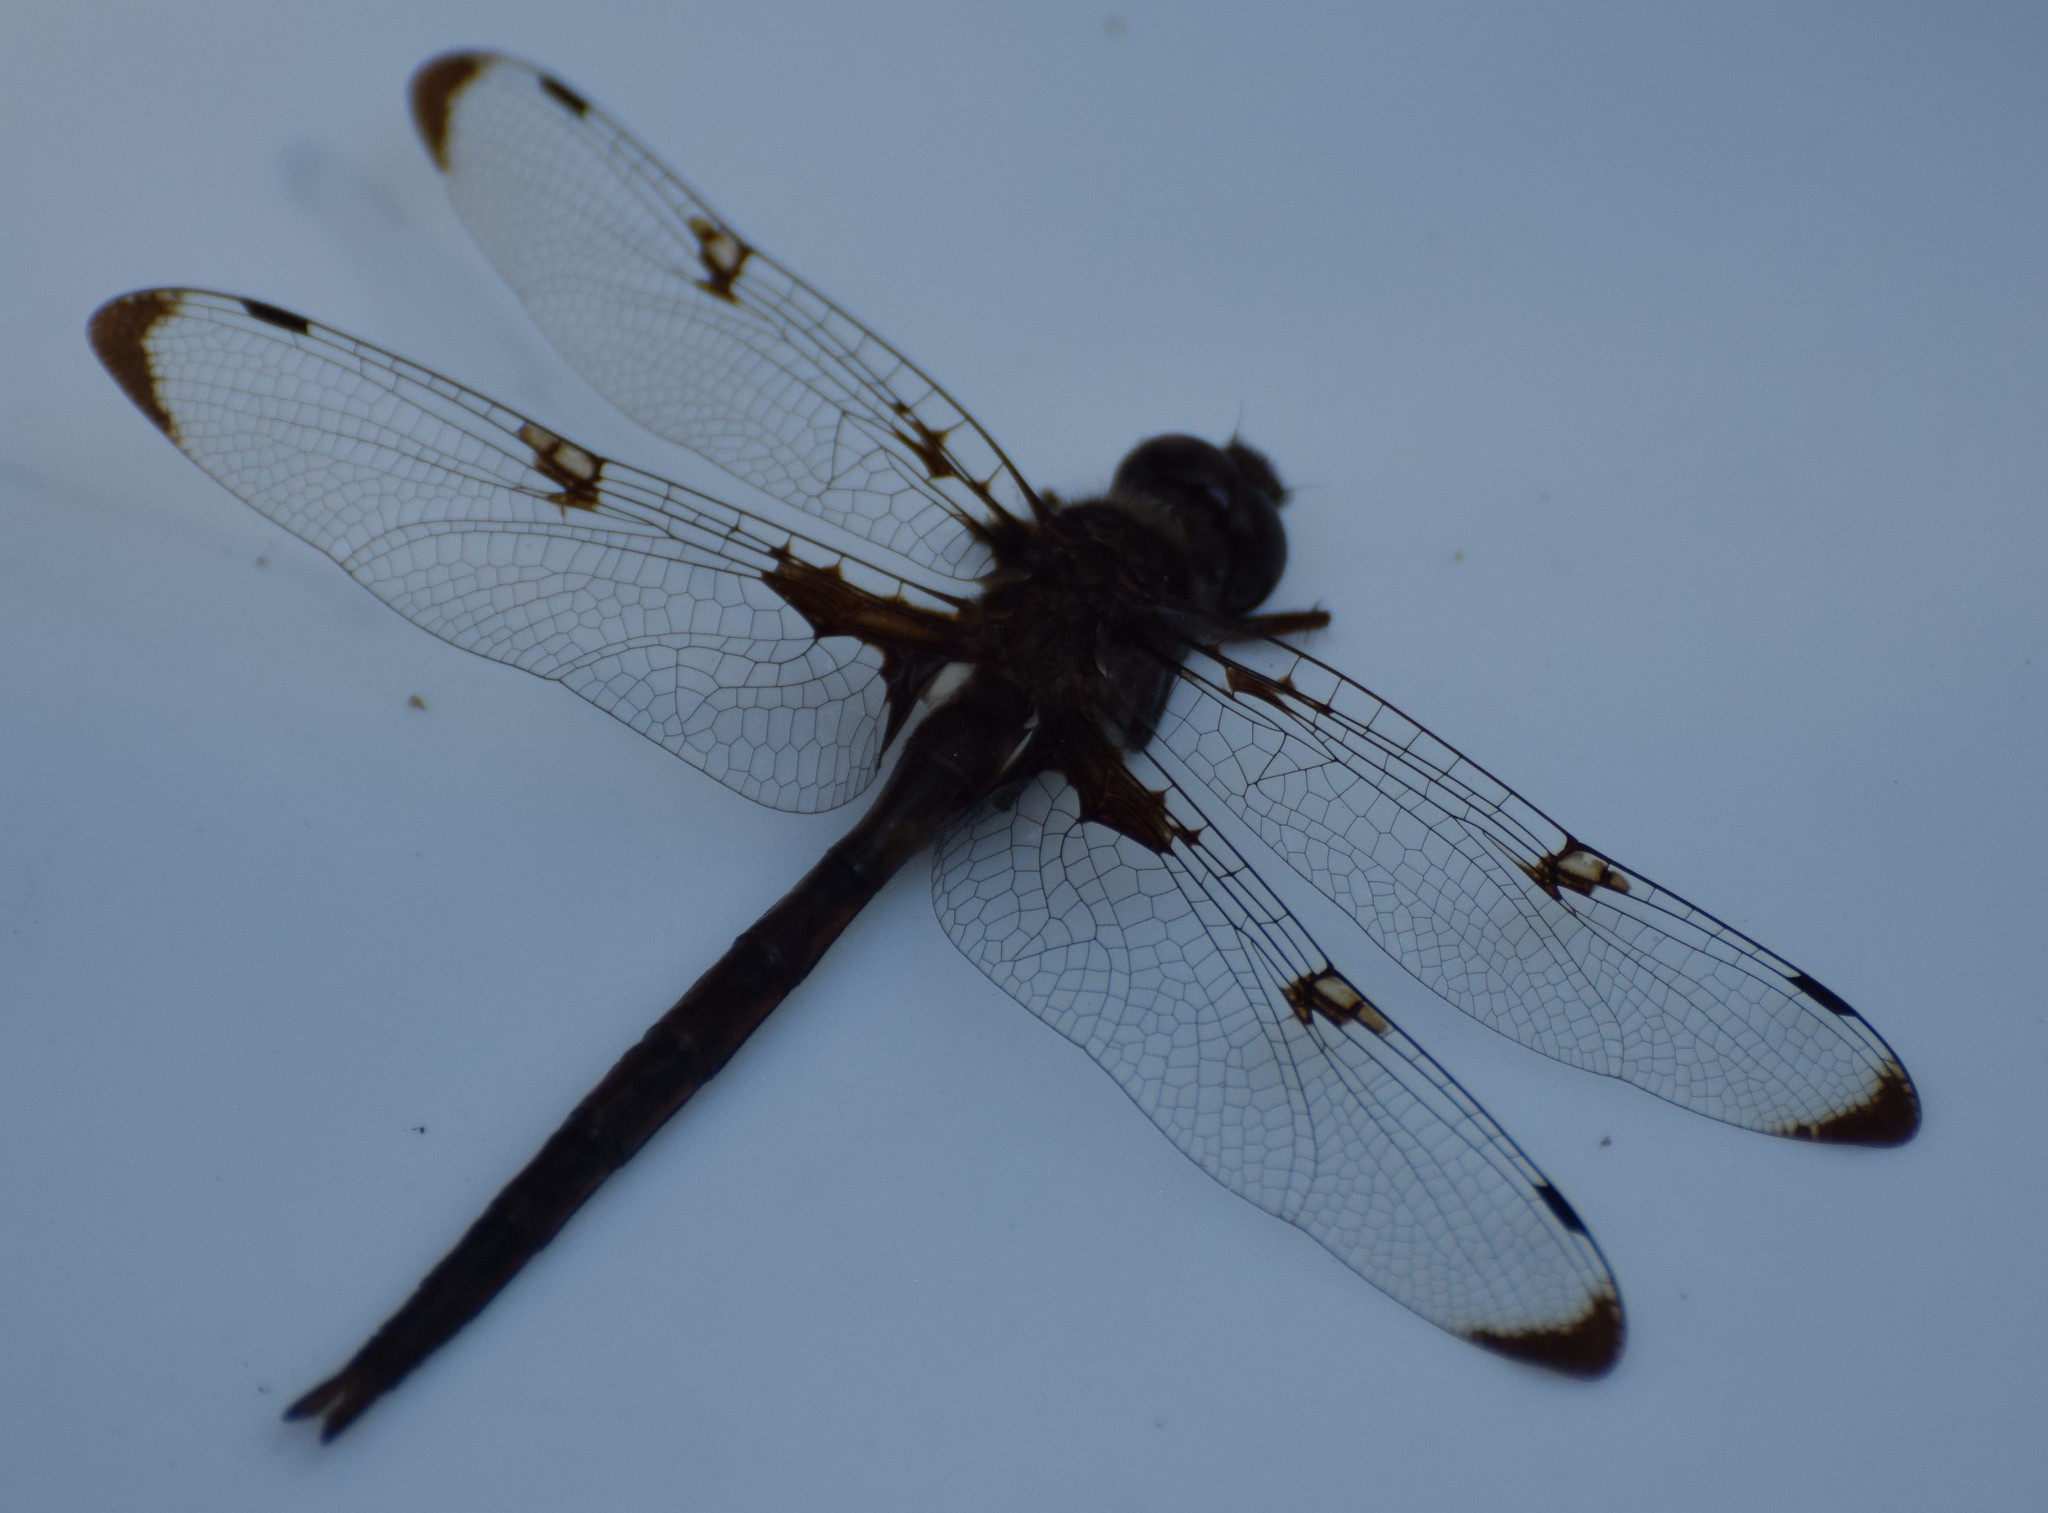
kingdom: Animalia
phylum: Arthropoda
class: Insecta
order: Odonata
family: Corduliidae
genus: Epitheca
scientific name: Epitheca princeps
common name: Prince baskettail
